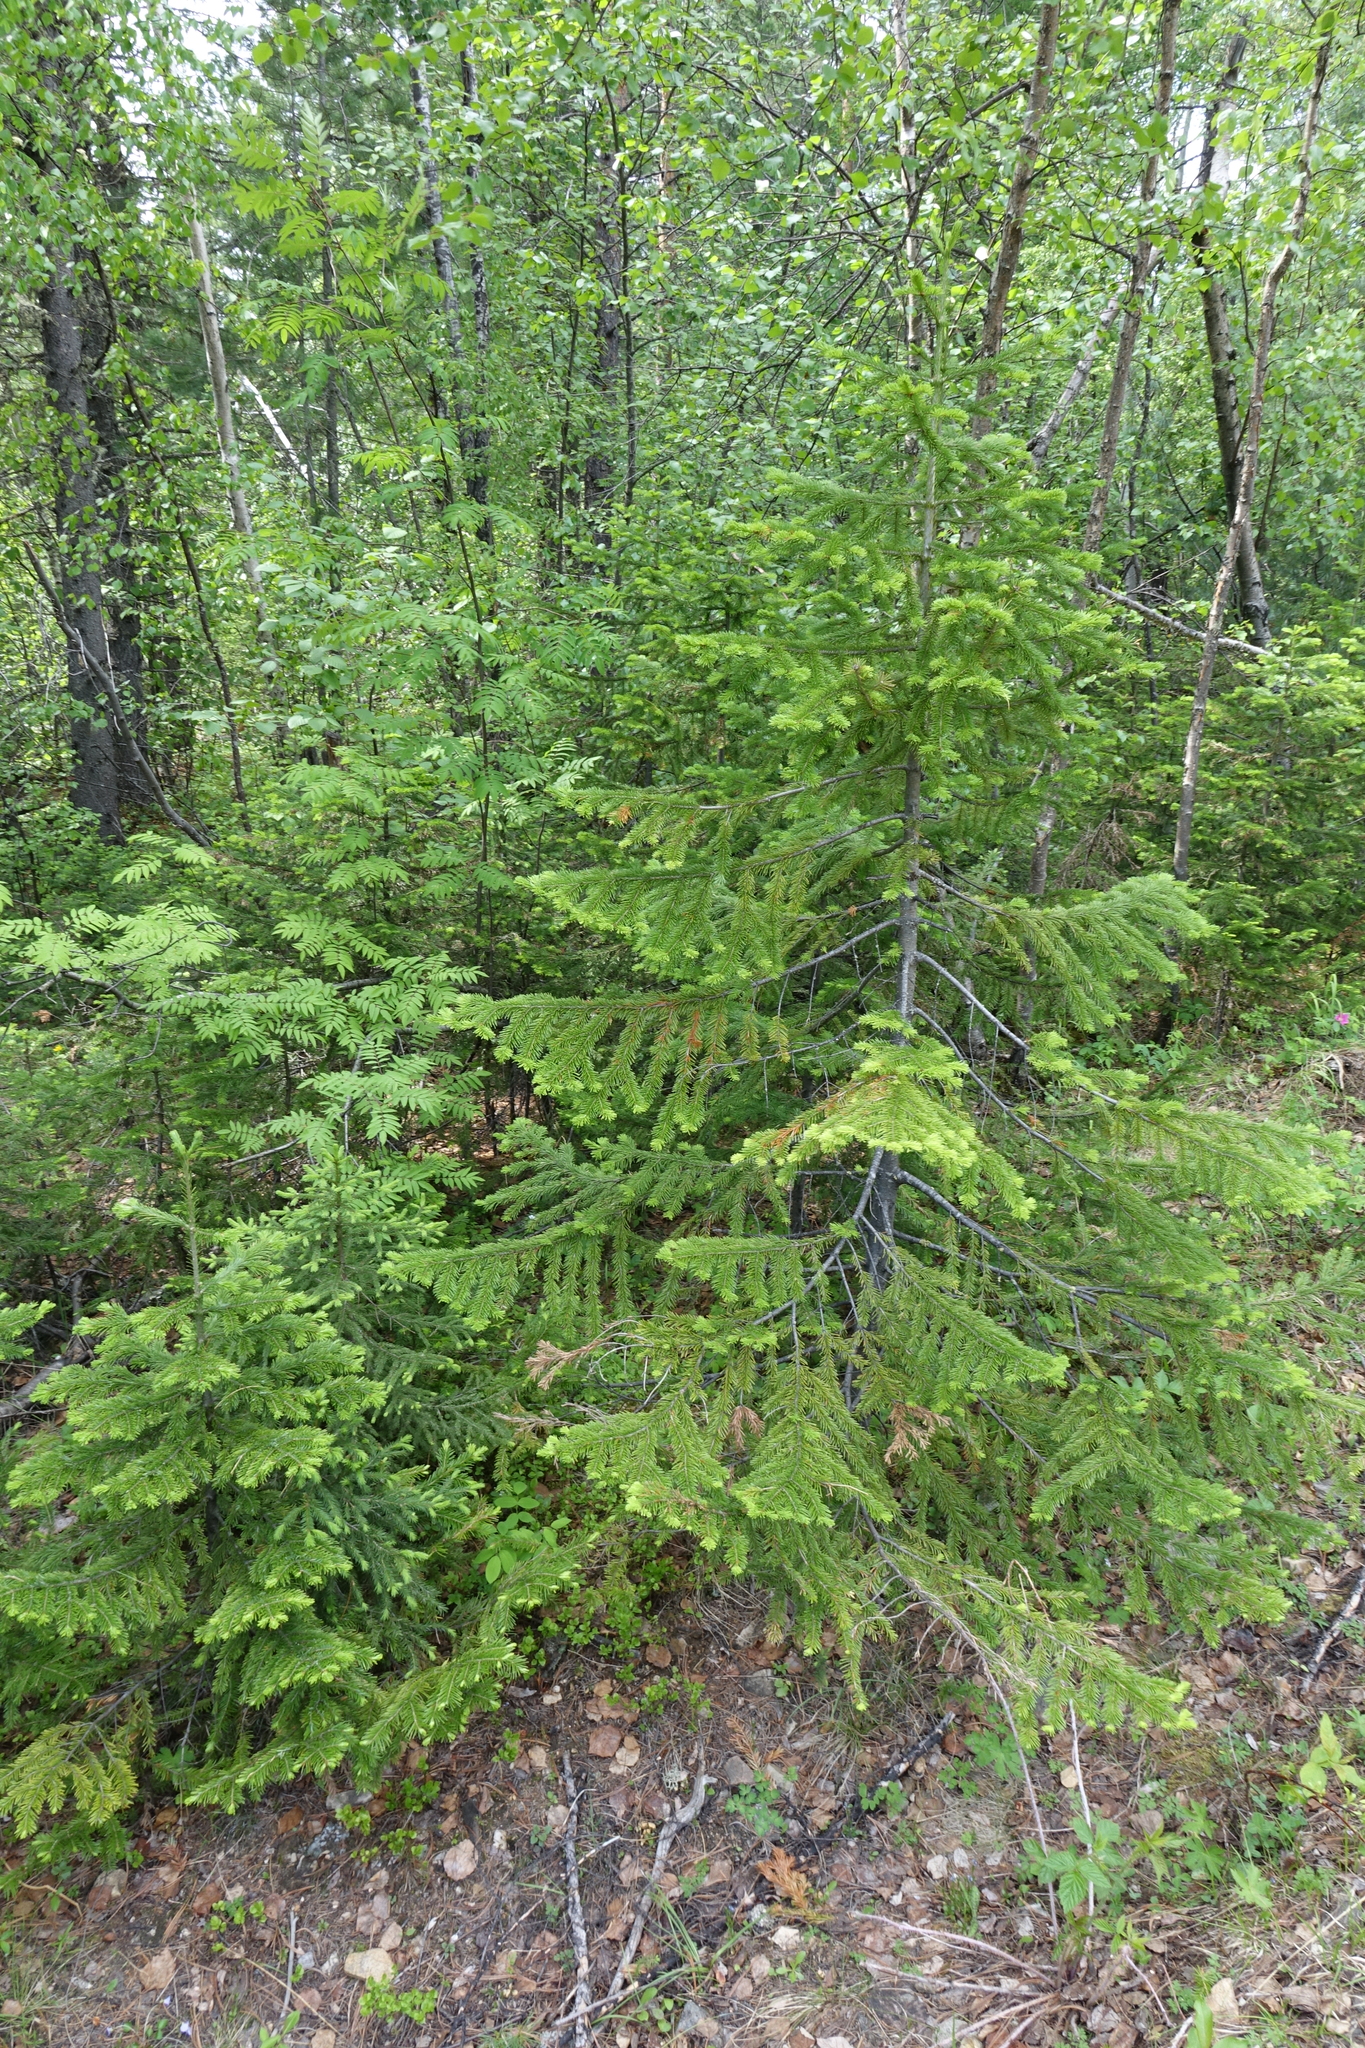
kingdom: Plantae
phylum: Tracheophyta
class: Pinopsida
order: Pinales
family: Pinaceae
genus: Abies
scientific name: Abies sibirica
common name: Siberian fir
